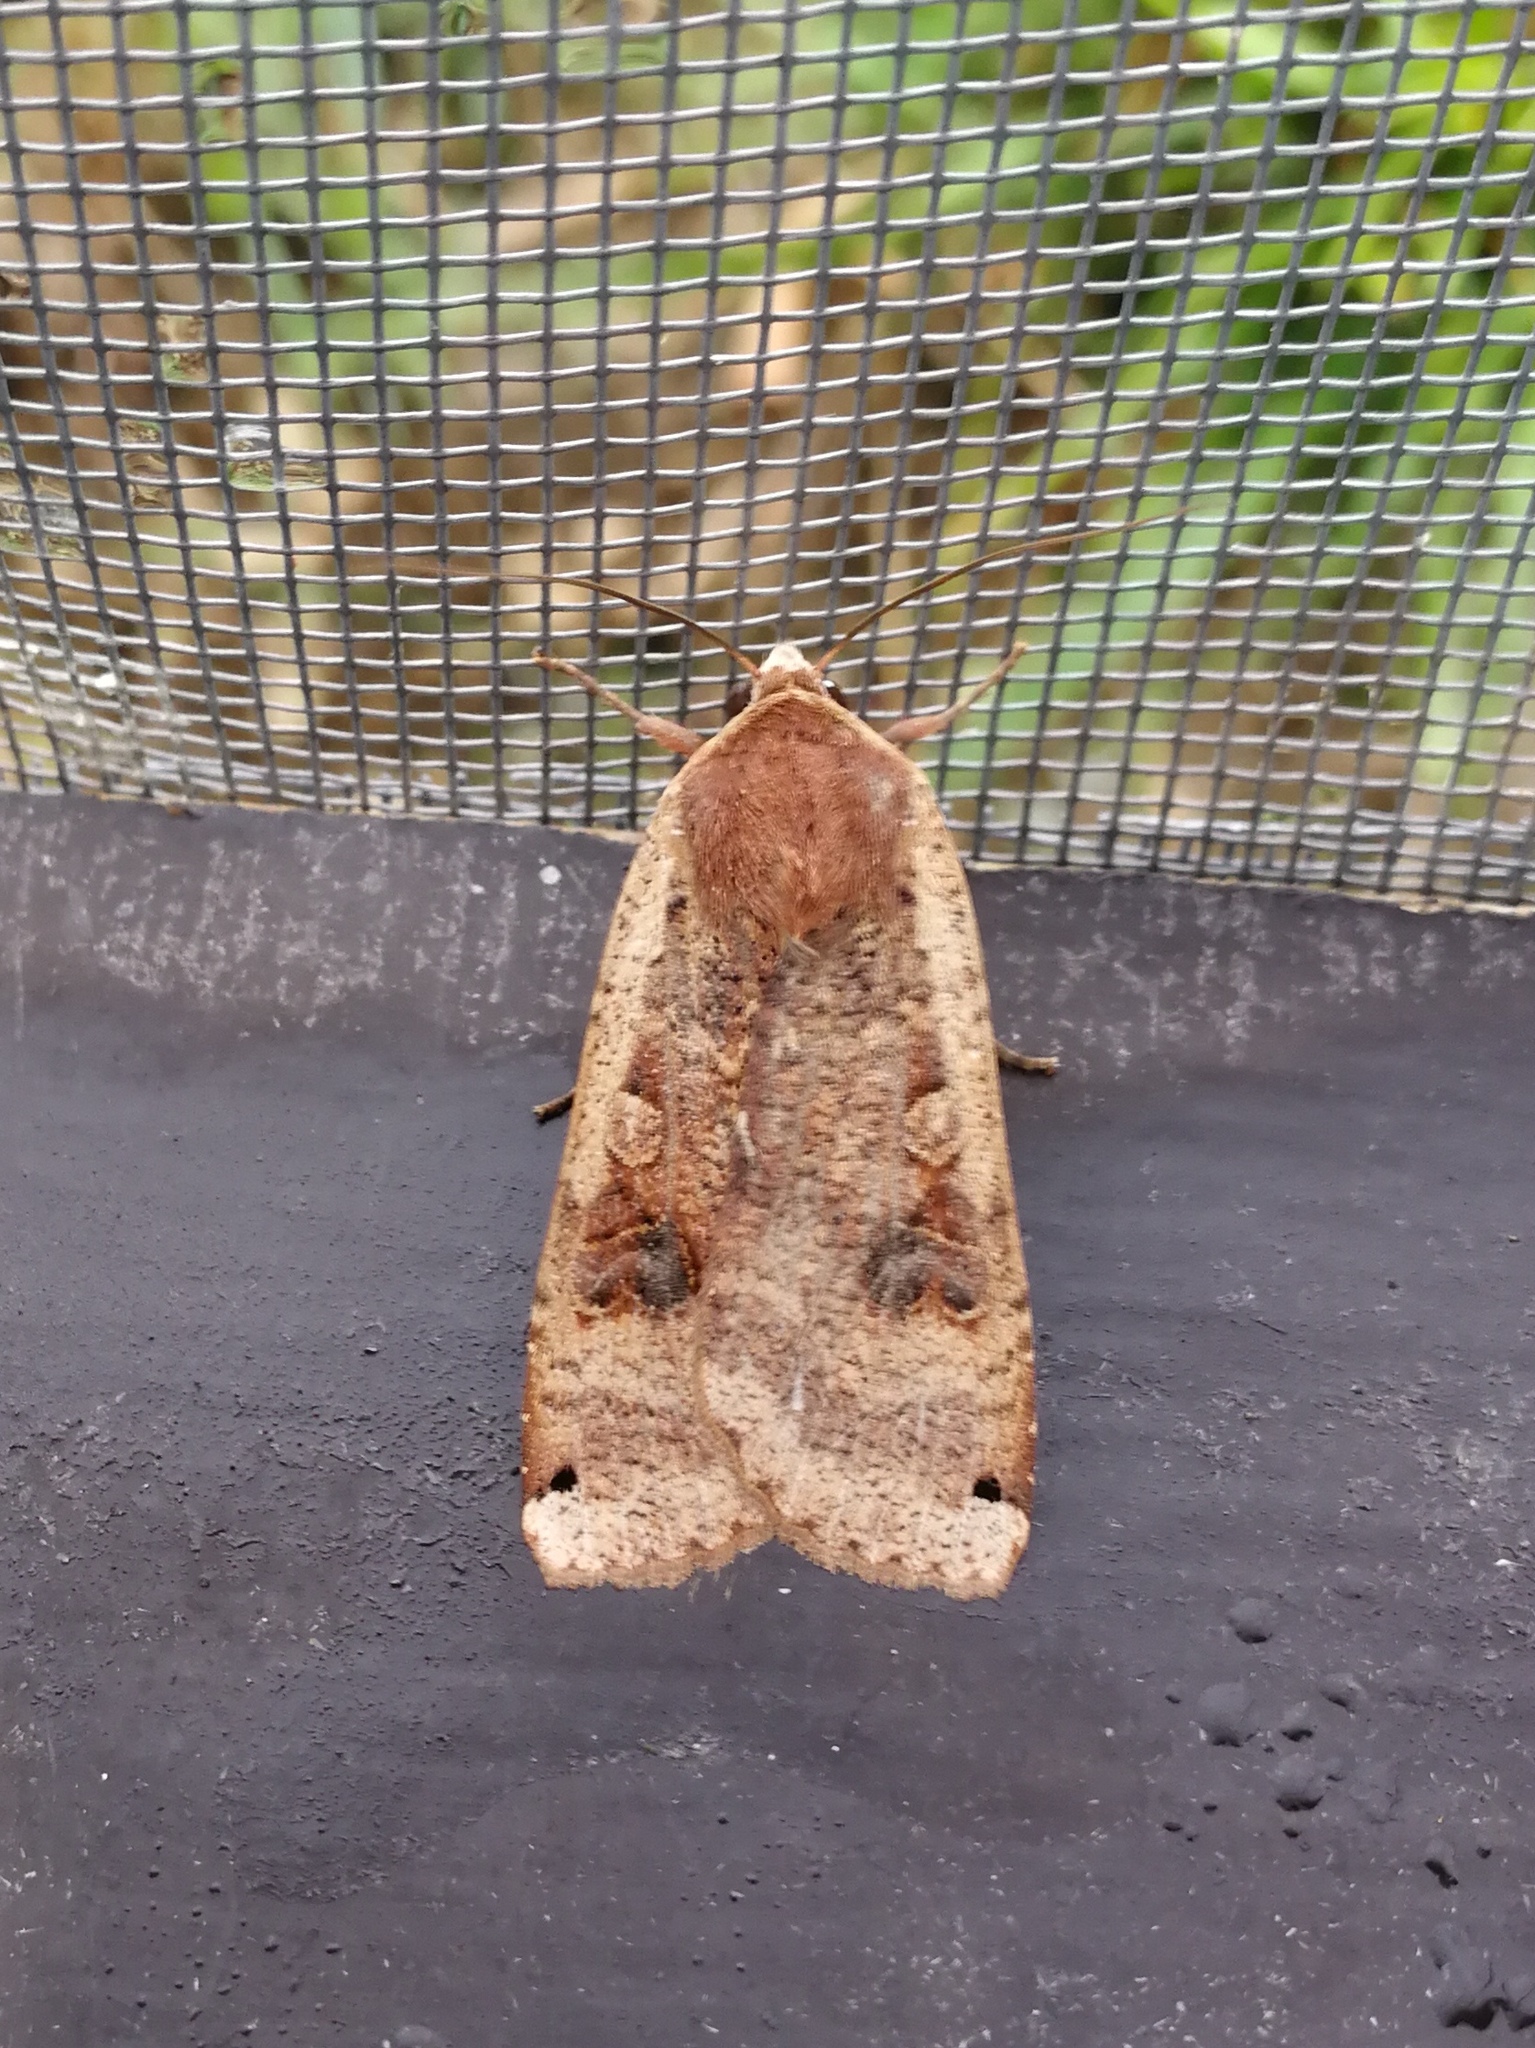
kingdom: Animalia
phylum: Arthropoda
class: Insecta
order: Lepidoptera
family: Noctuidae
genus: Noctua
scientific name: Noctua pronuba
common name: Large yellow underwing
